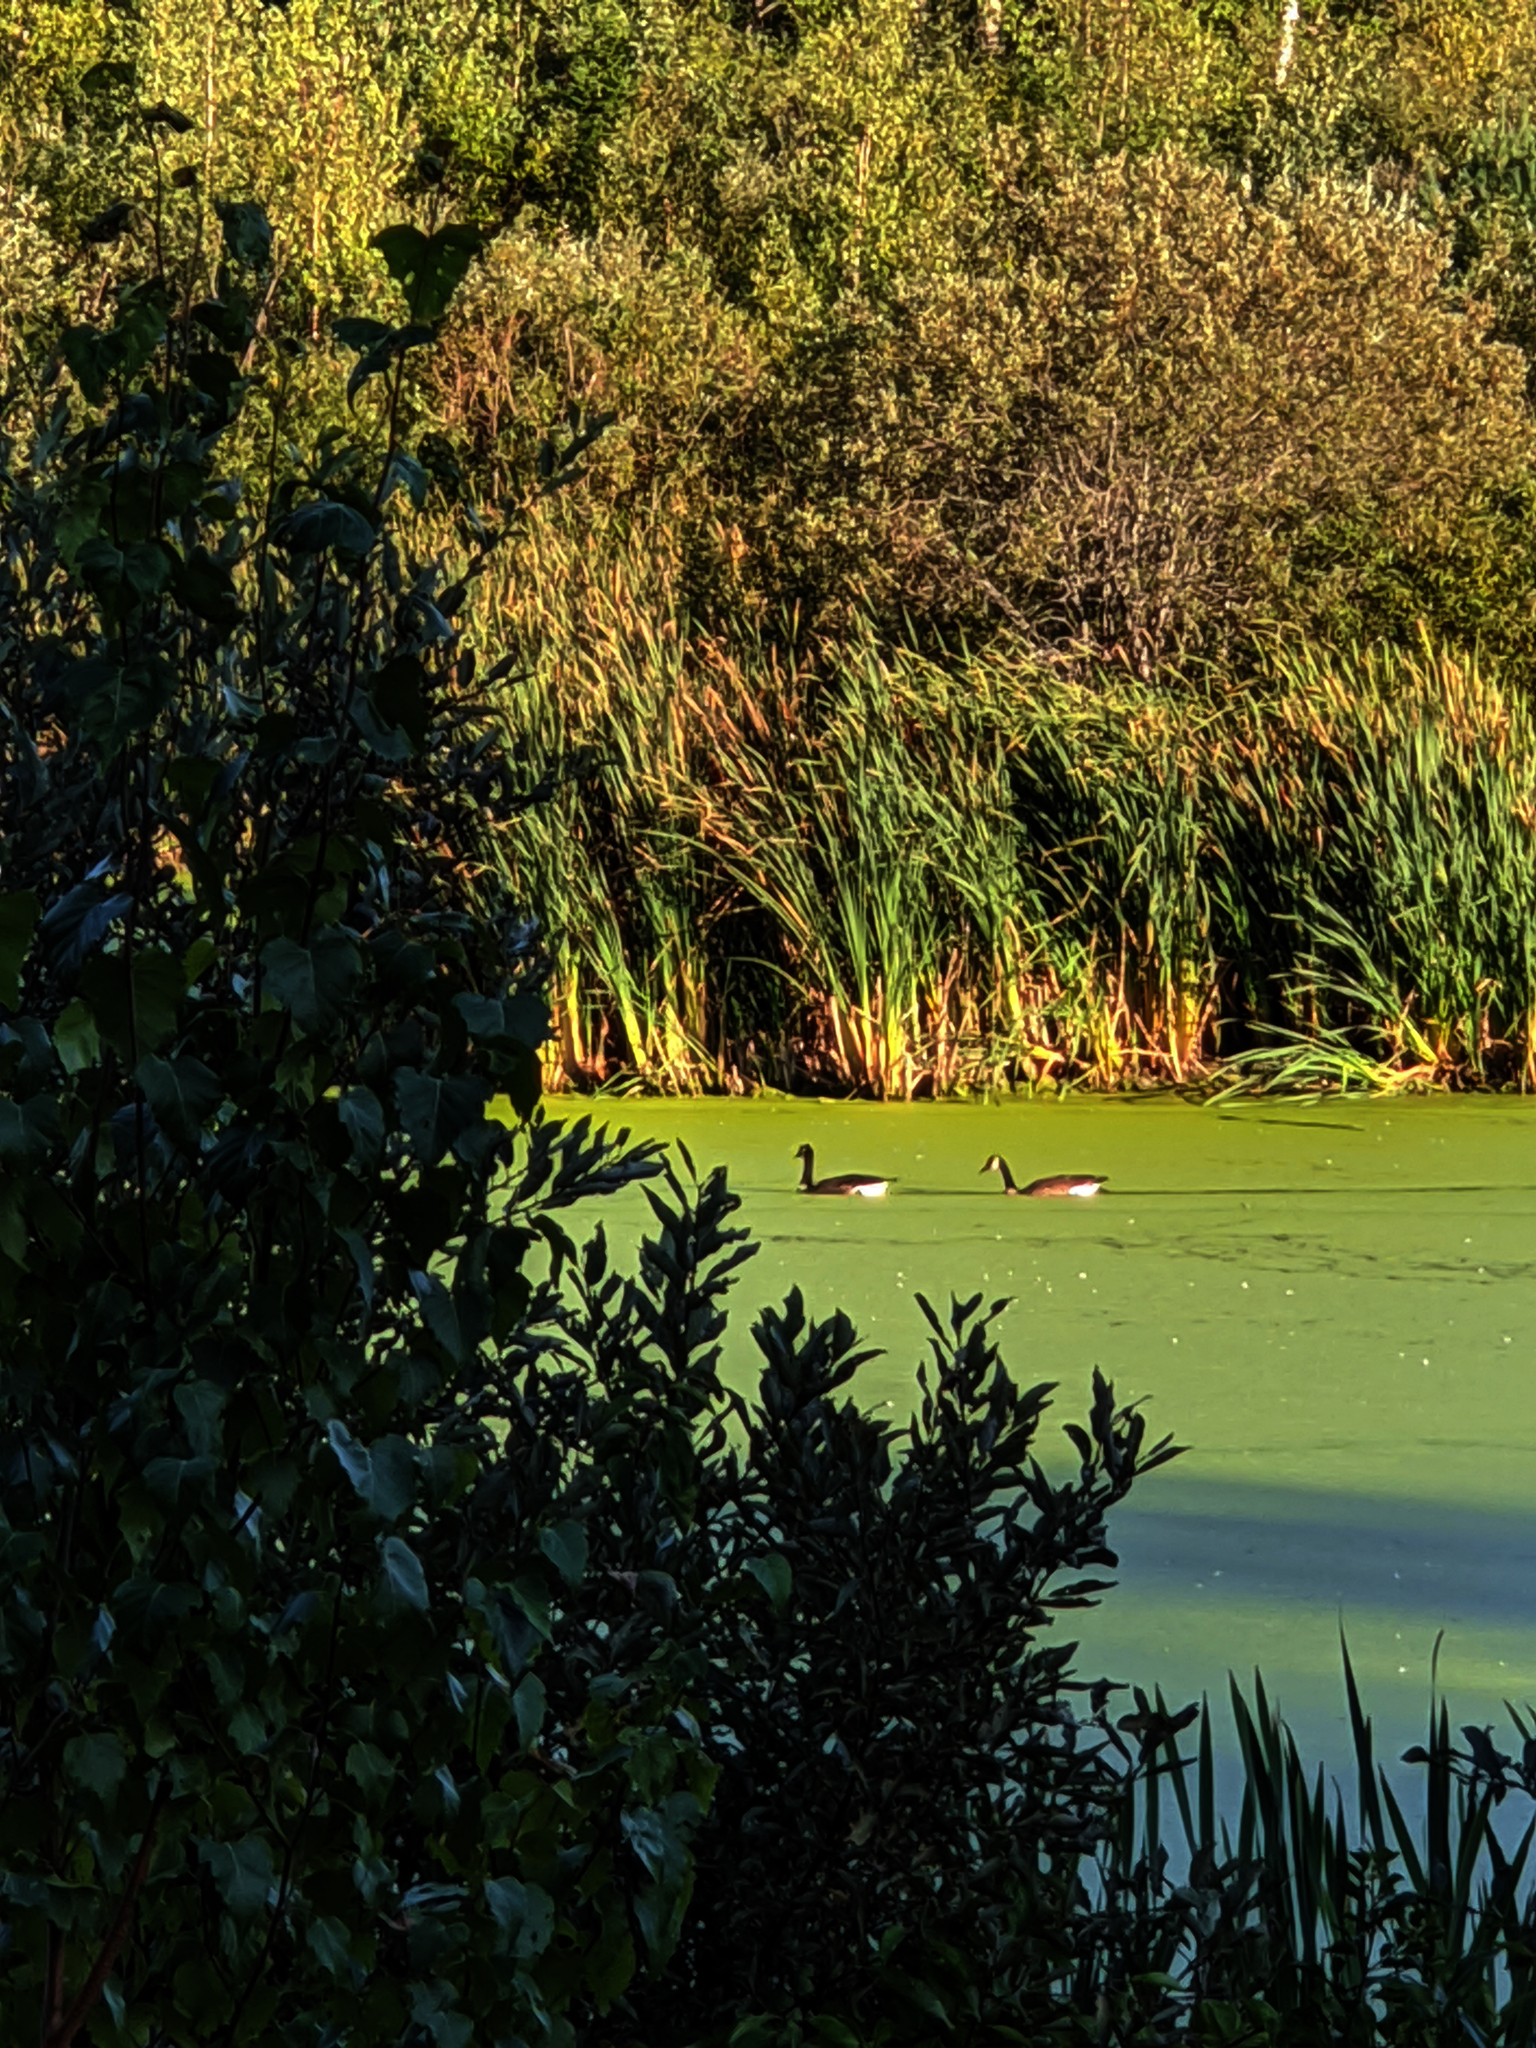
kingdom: Animalia
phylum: Chordata
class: Aves
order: Anseriformes
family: Anatidae
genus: Branta
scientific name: Branta canadensis
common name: Canada goose
